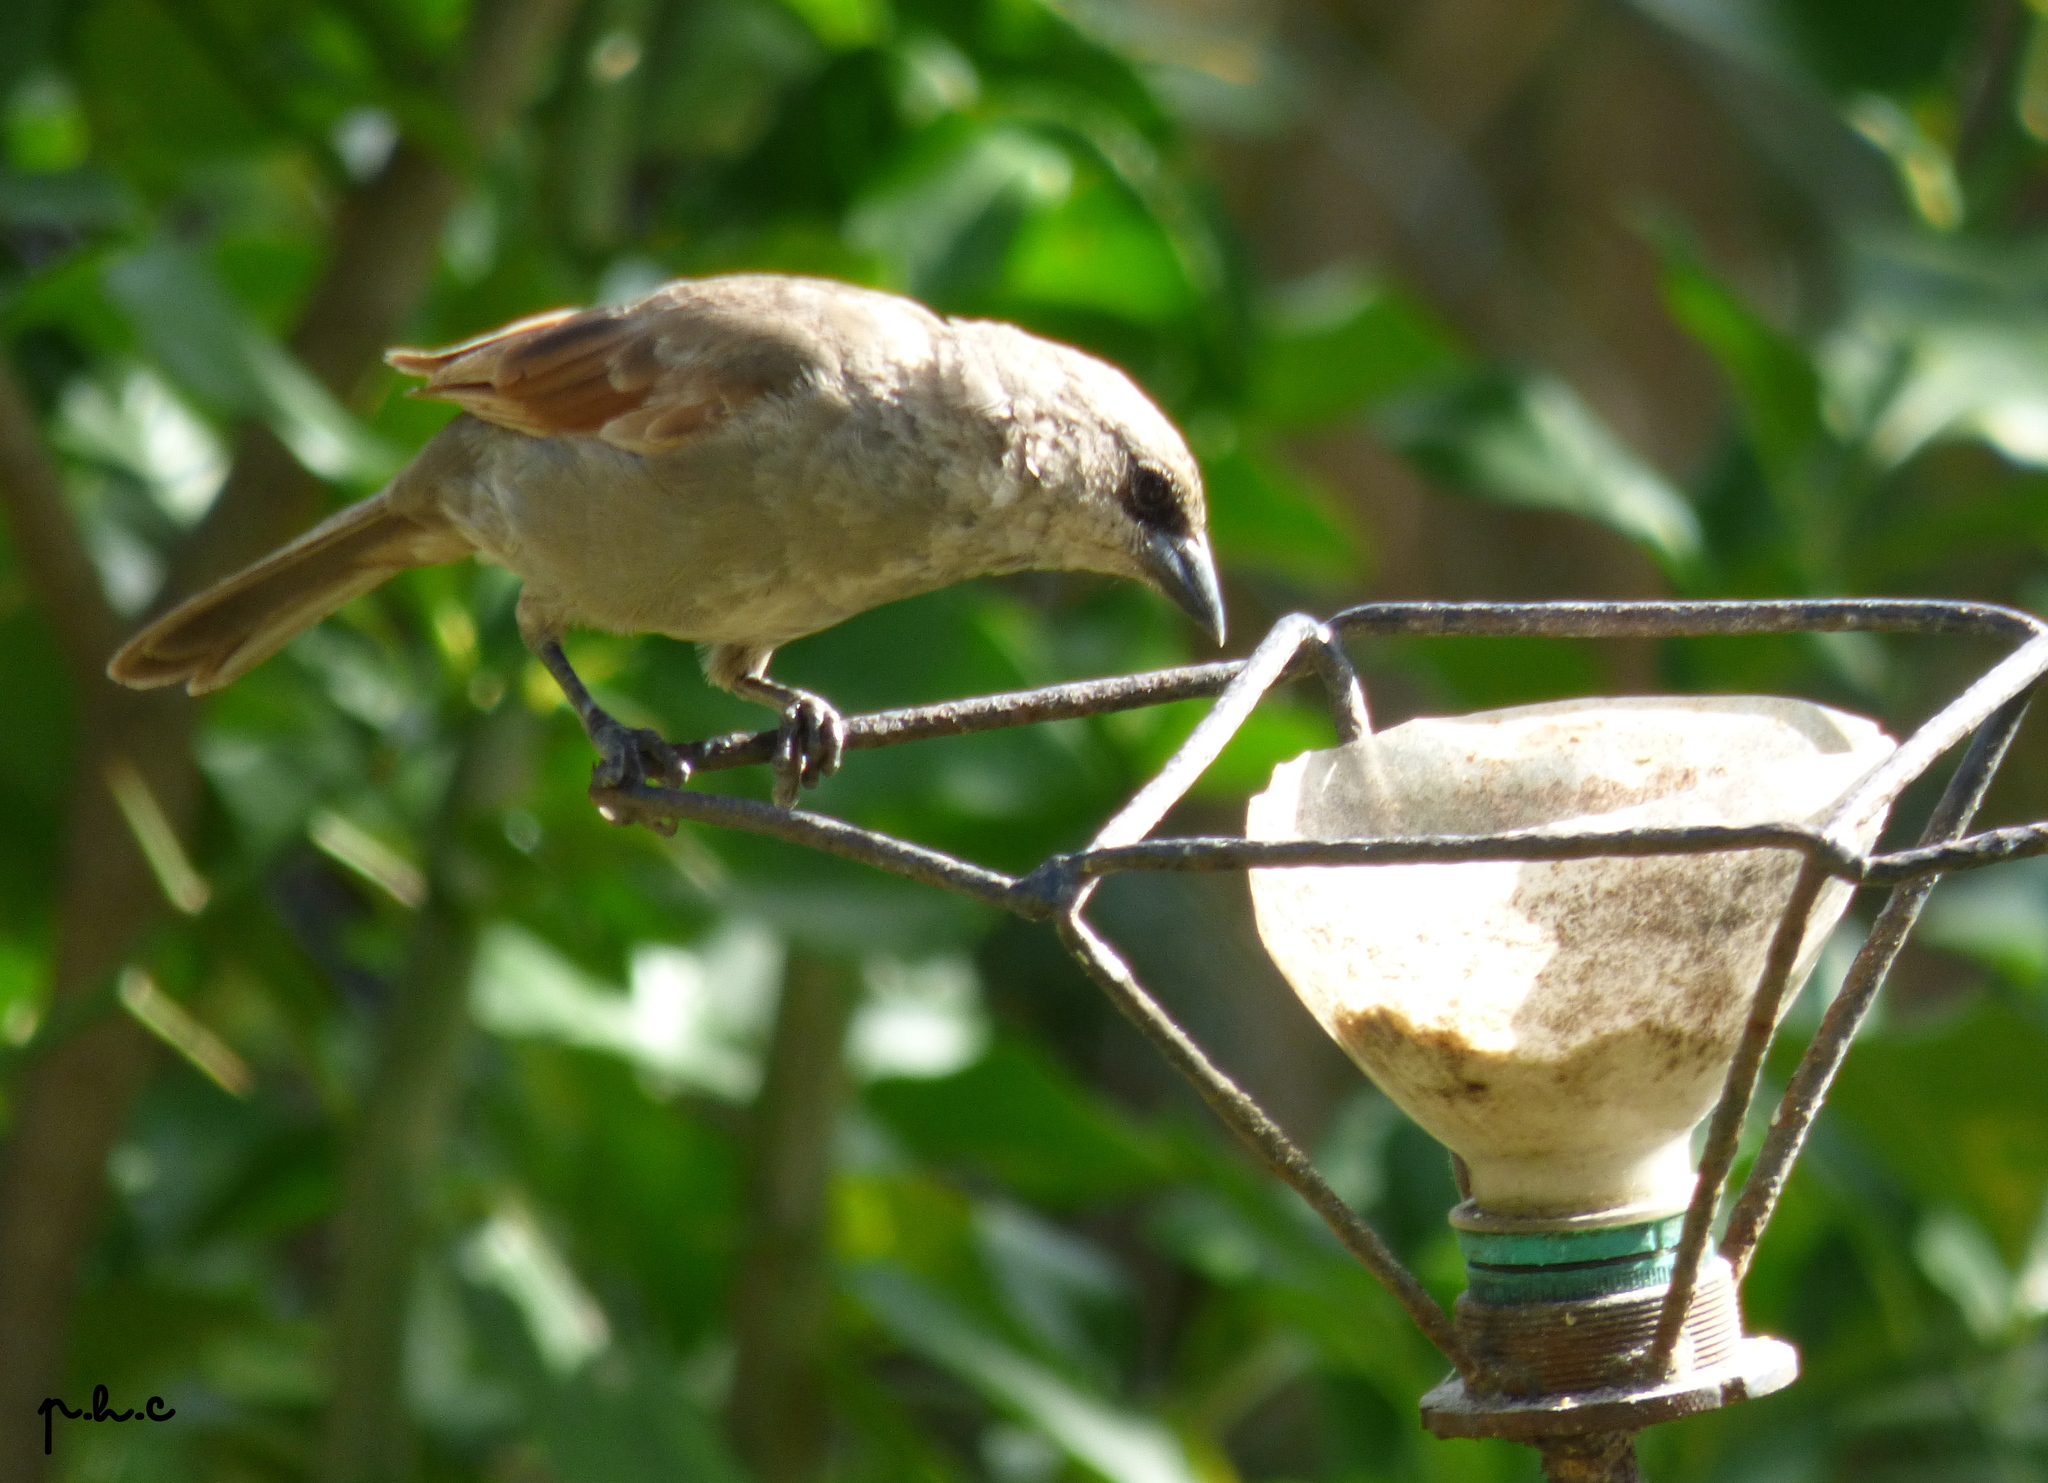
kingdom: Animalia
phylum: Chordata
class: Aves
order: Passeriformes
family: Icteridae
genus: Agelaioides
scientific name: Agelaioides badius
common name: Baywing
